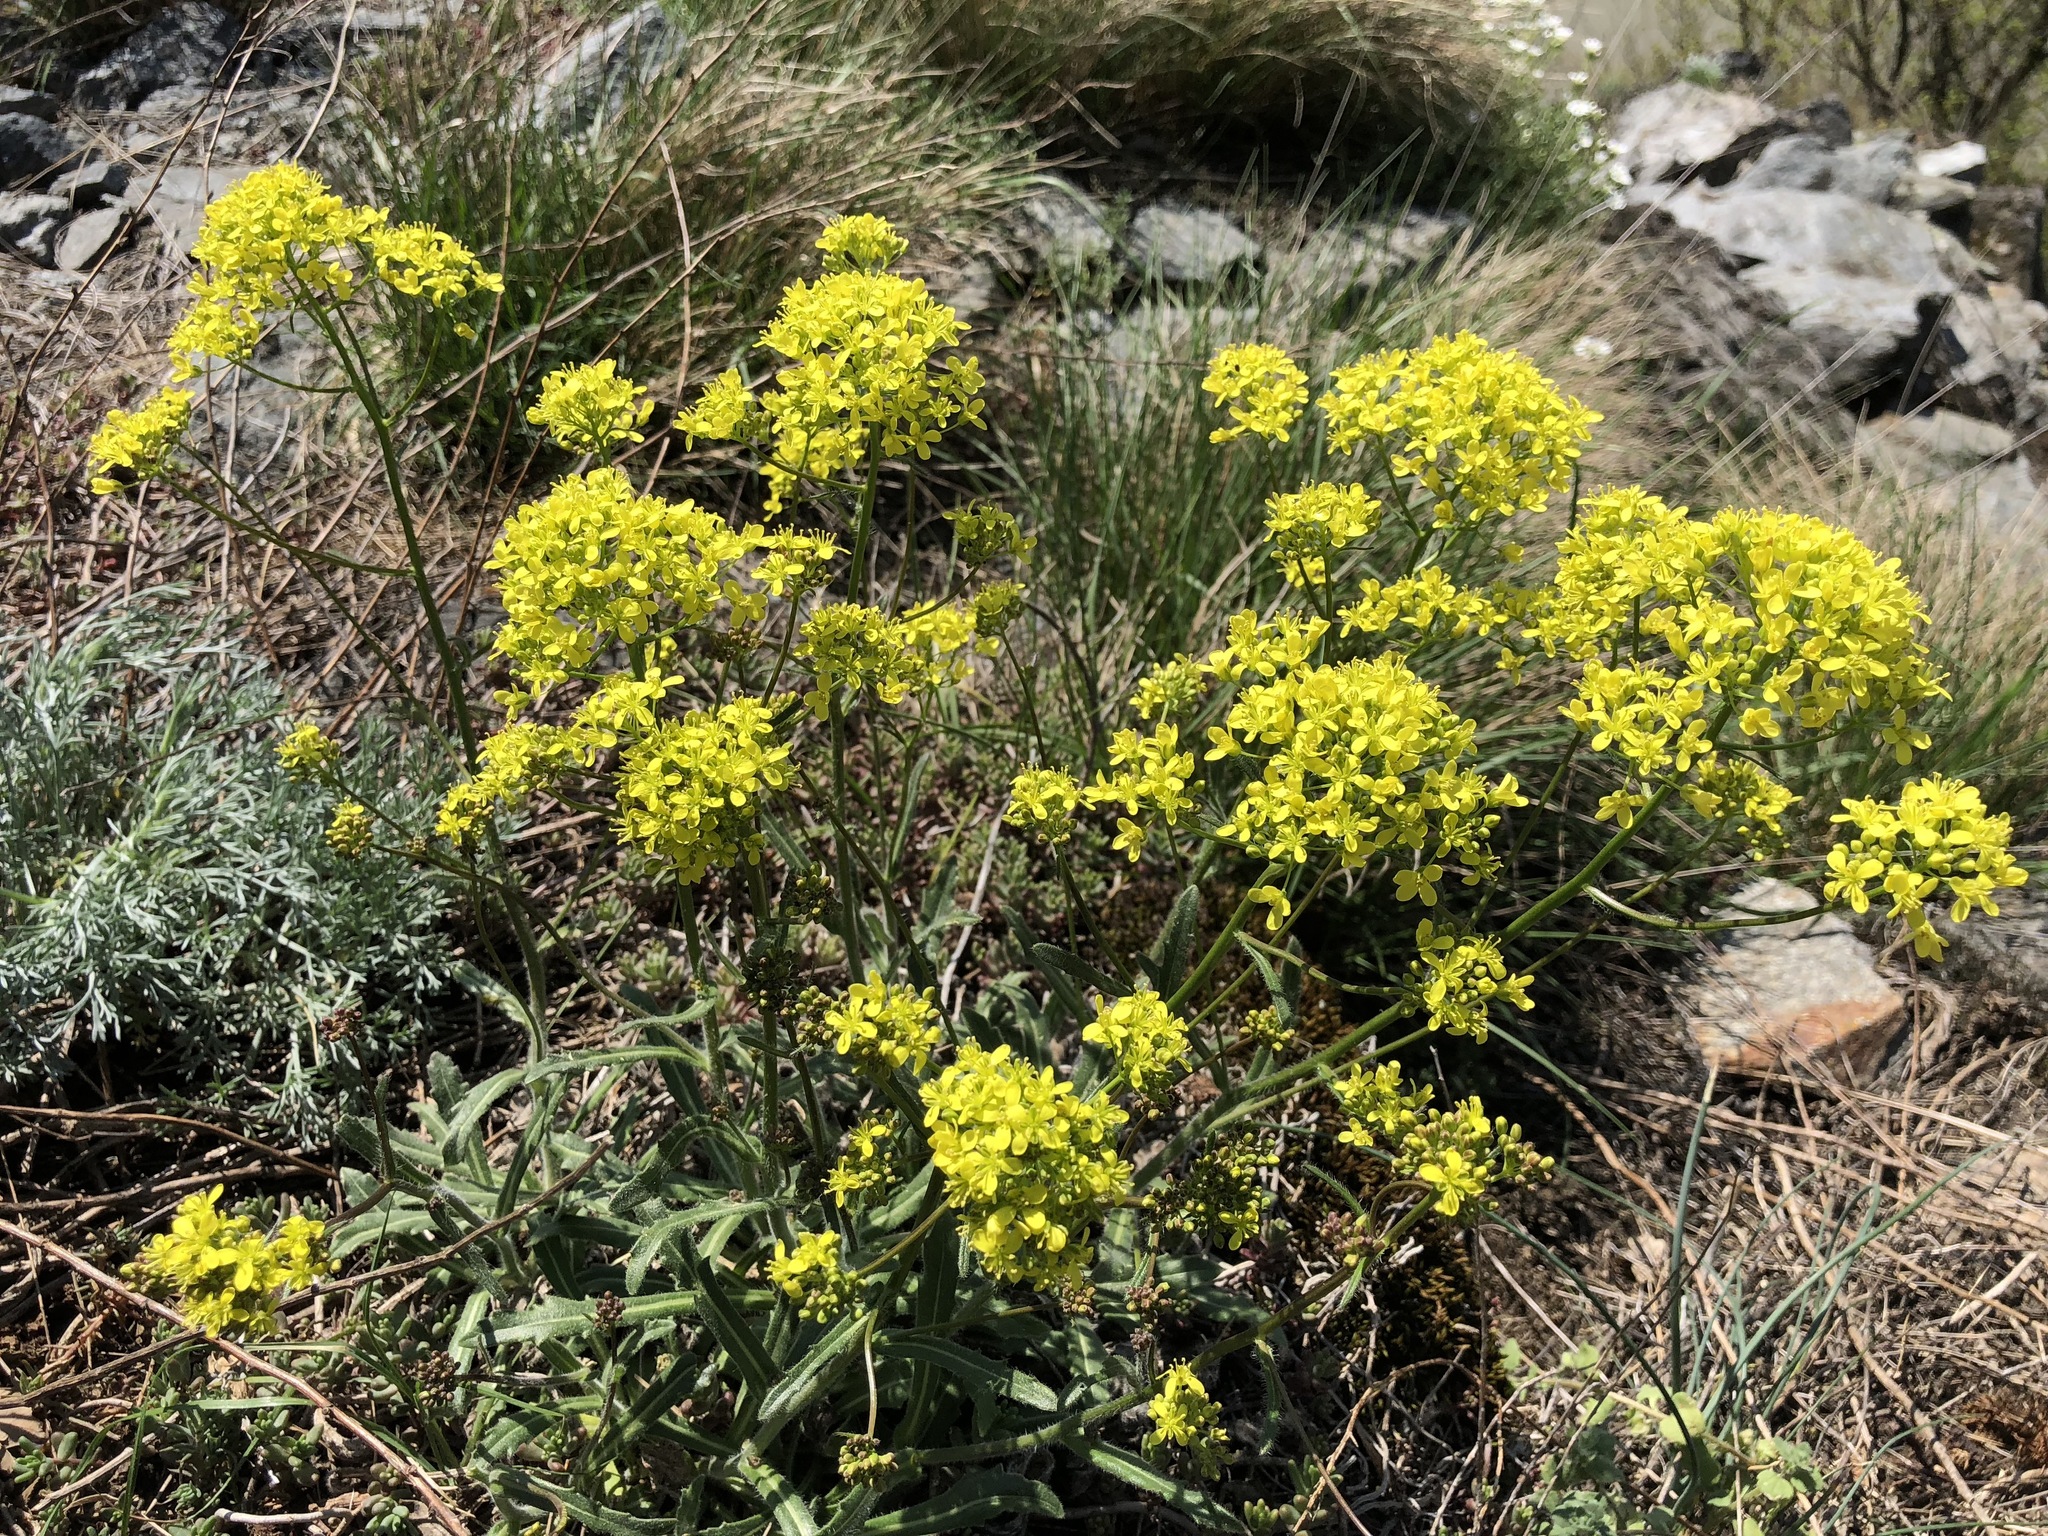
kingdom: Plantae
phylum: Tracheophyta
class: Magnoliopsida
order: Brassicales
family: Brassicaceae
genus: Biscutella
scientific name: Biscutella laevigata
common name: Buckler mustard
